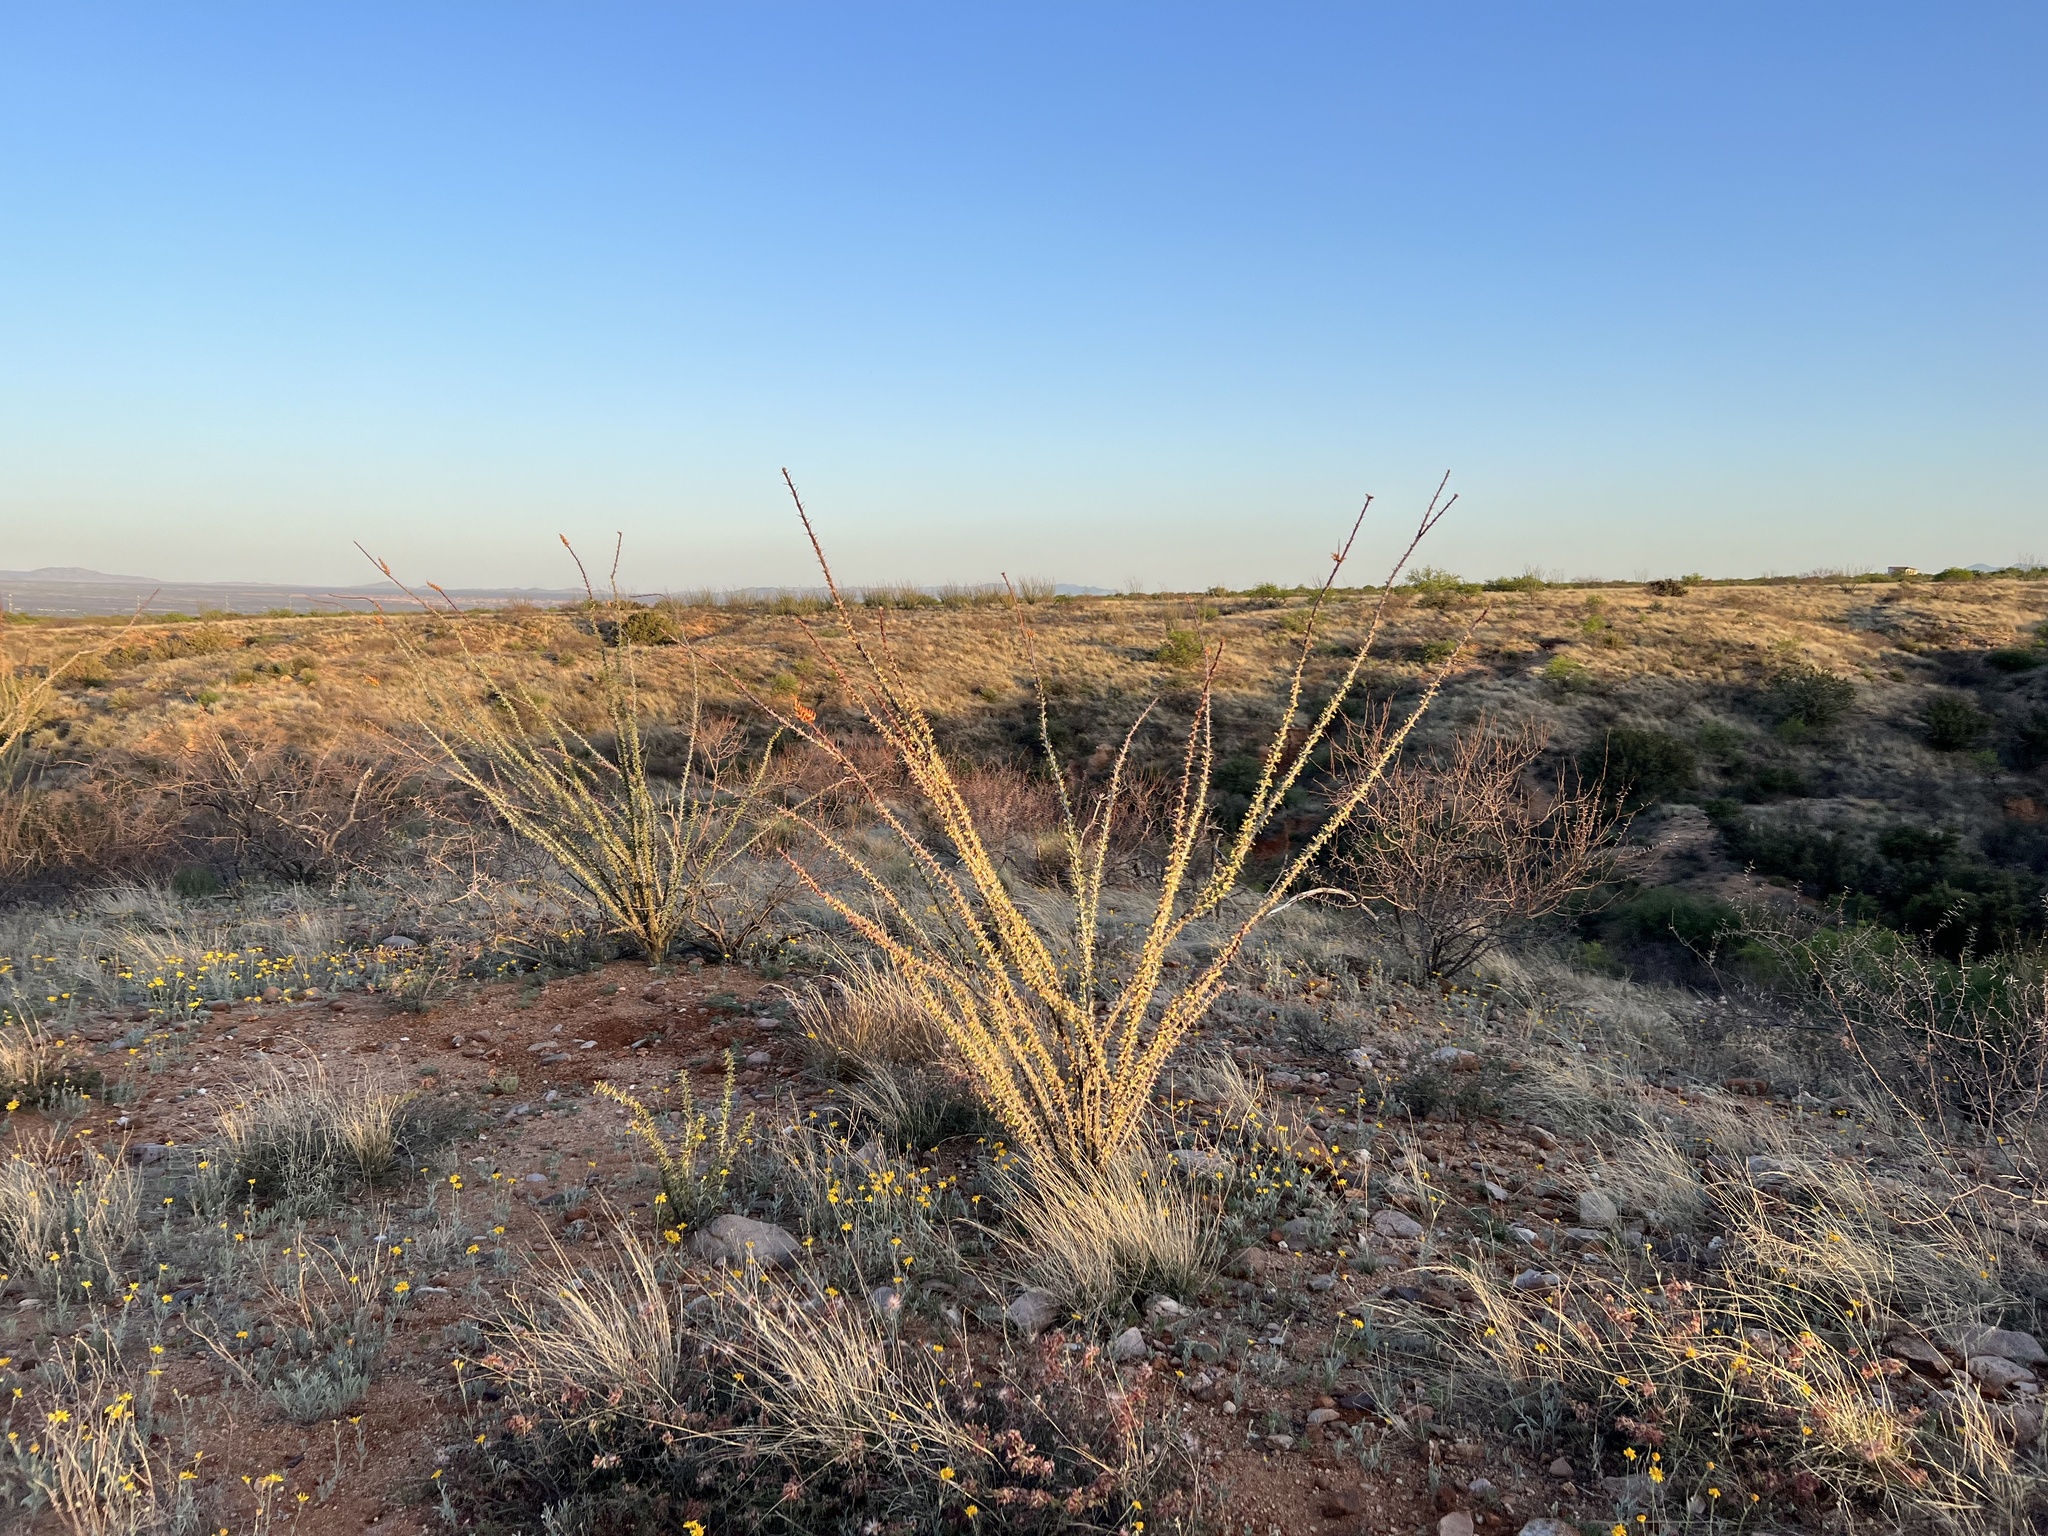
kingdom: Plantae
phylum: Tracheophyta
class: Magnoliopsida
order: Ericales
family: Fouquieriaceae
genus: Fouquieria
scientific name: Fouquieria splendens
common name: Vine-cactus
